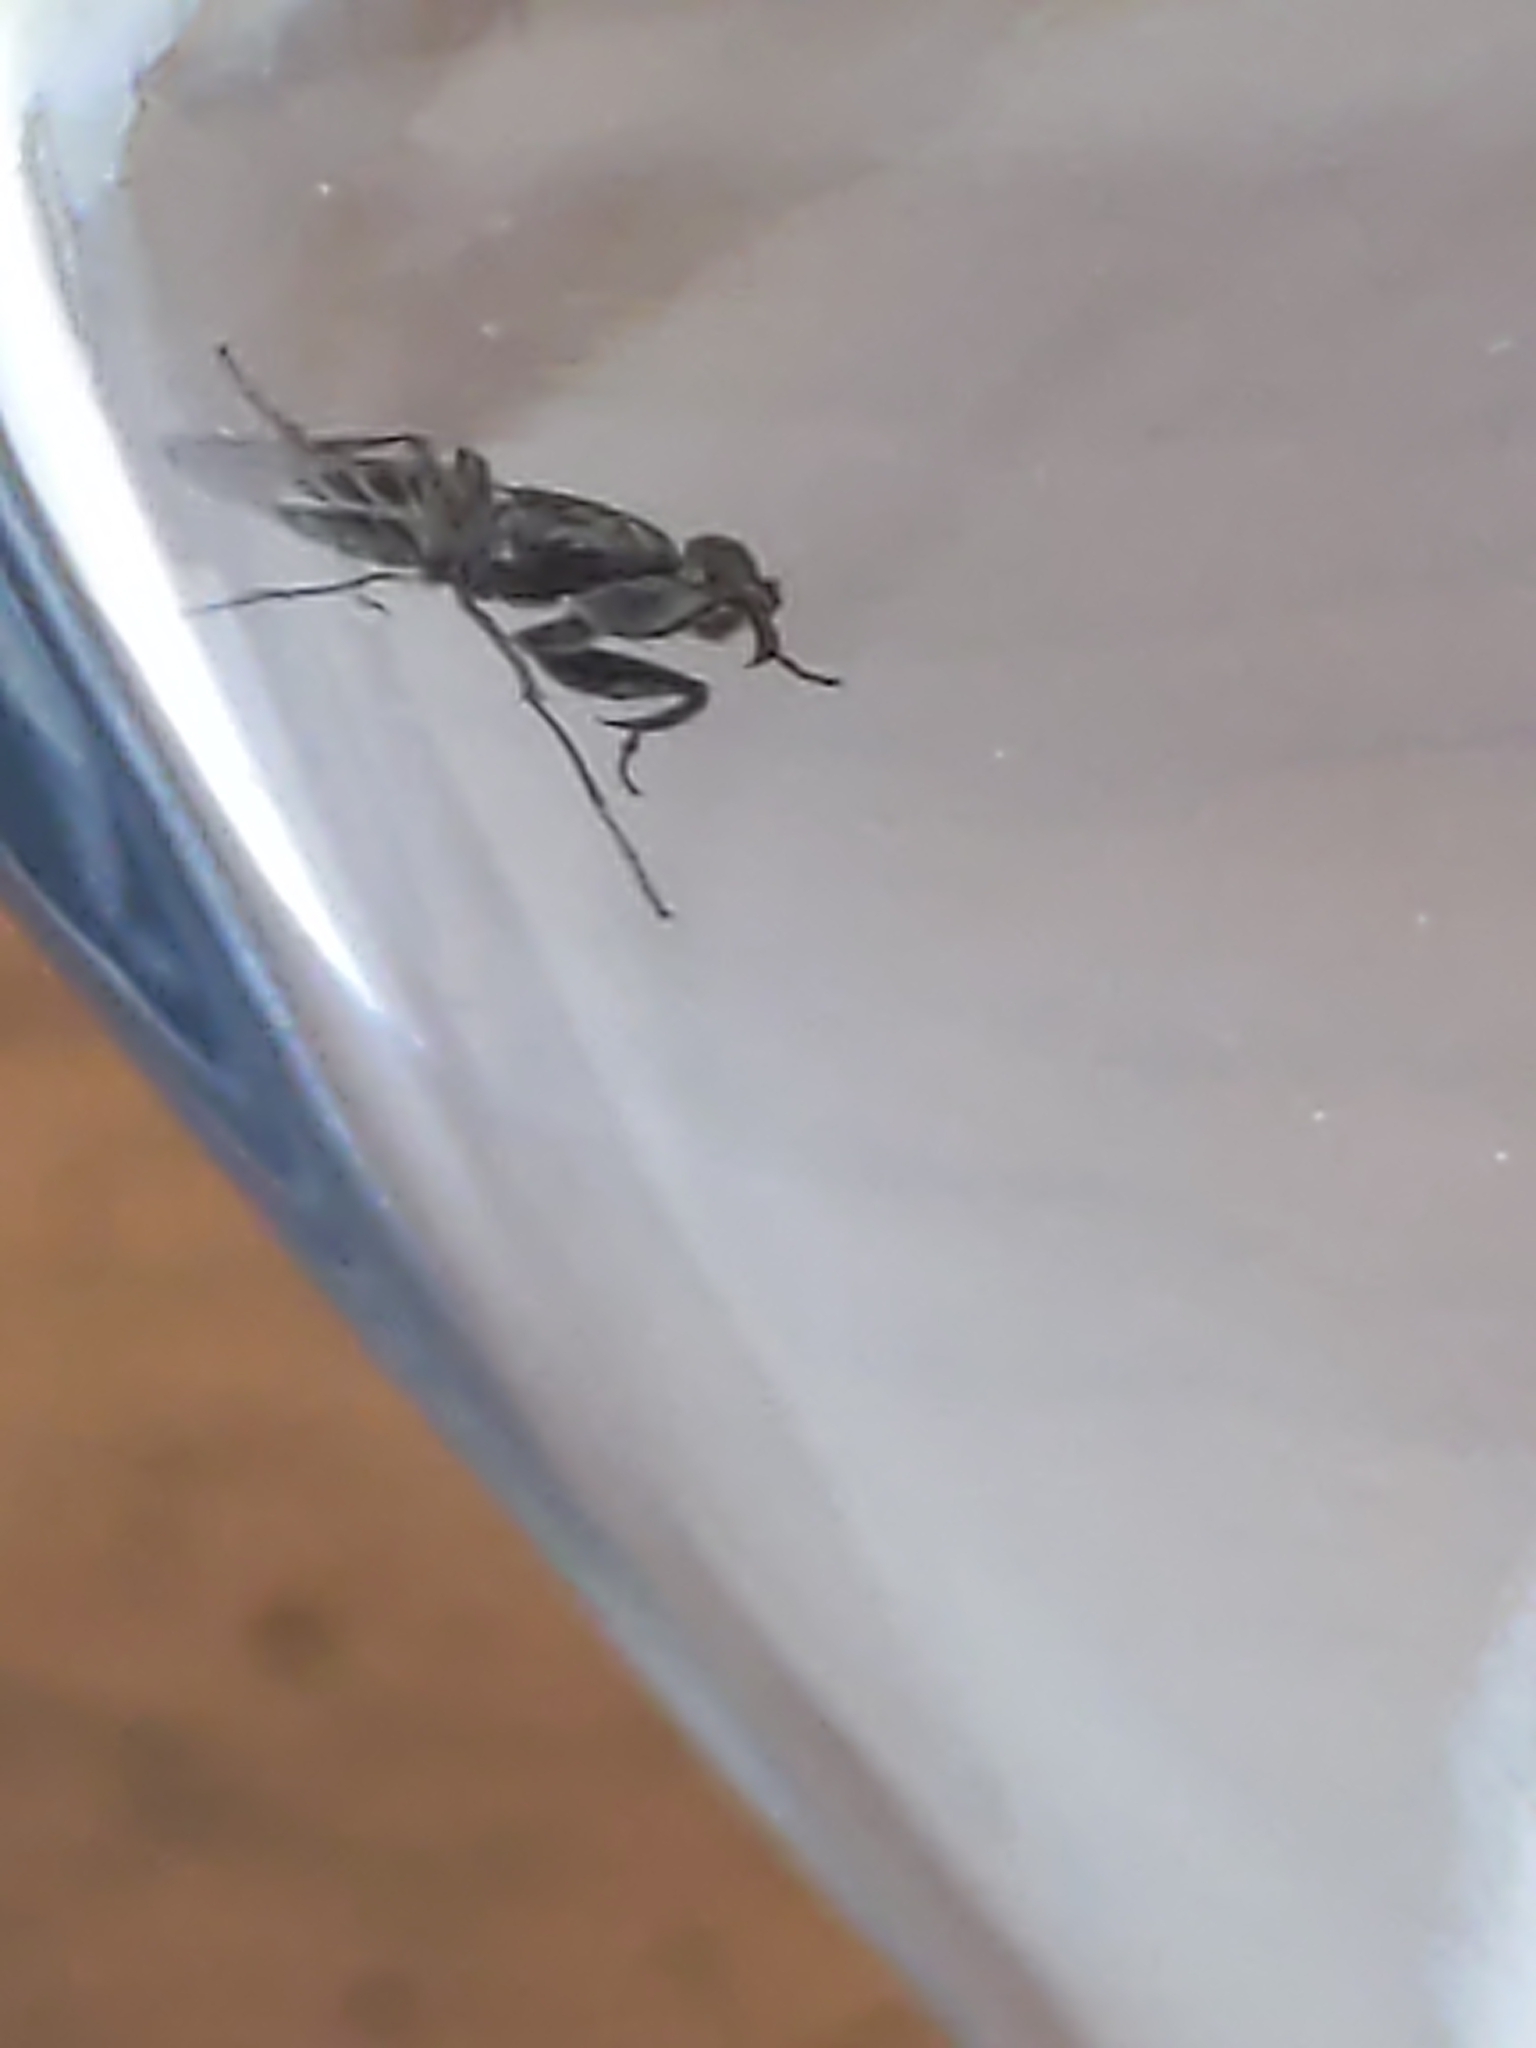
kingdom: Animalia
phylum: Arthropoda
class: Insecta
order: Diptera
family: Ephydridae
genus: Ochthera
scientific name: Ochthera
